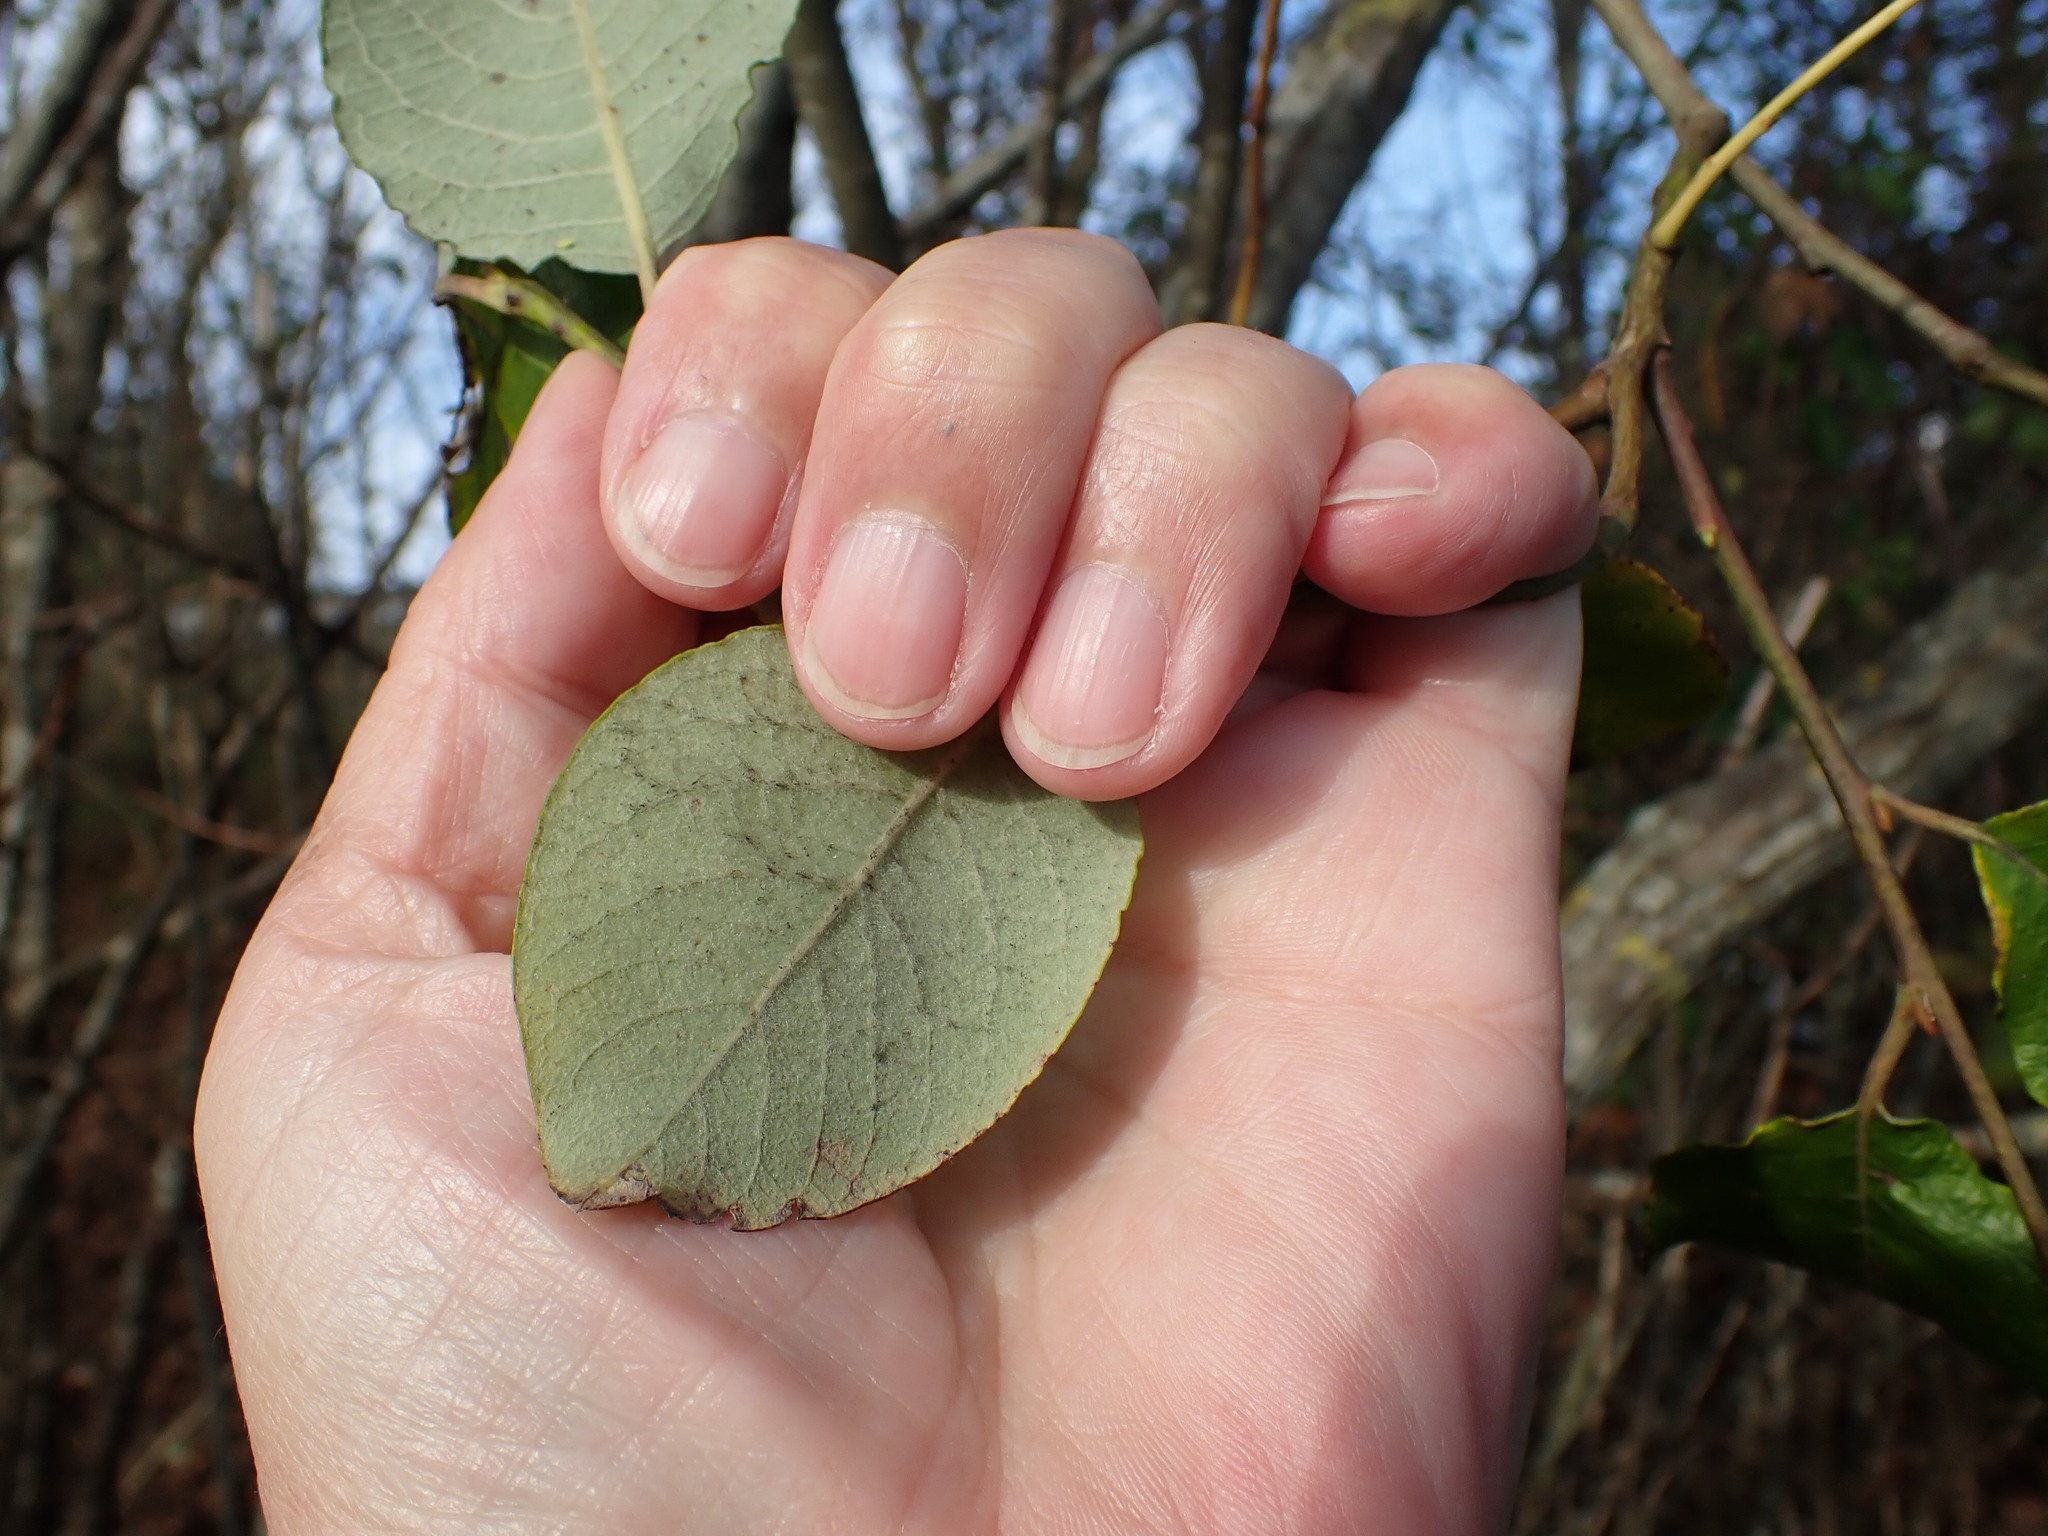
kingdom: Plantae
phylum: Tracheophyta
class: Magnoliopsida
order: Malpighiales
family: Salicaceae
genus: Salix
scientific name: Salix caprea
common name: Goat willow
